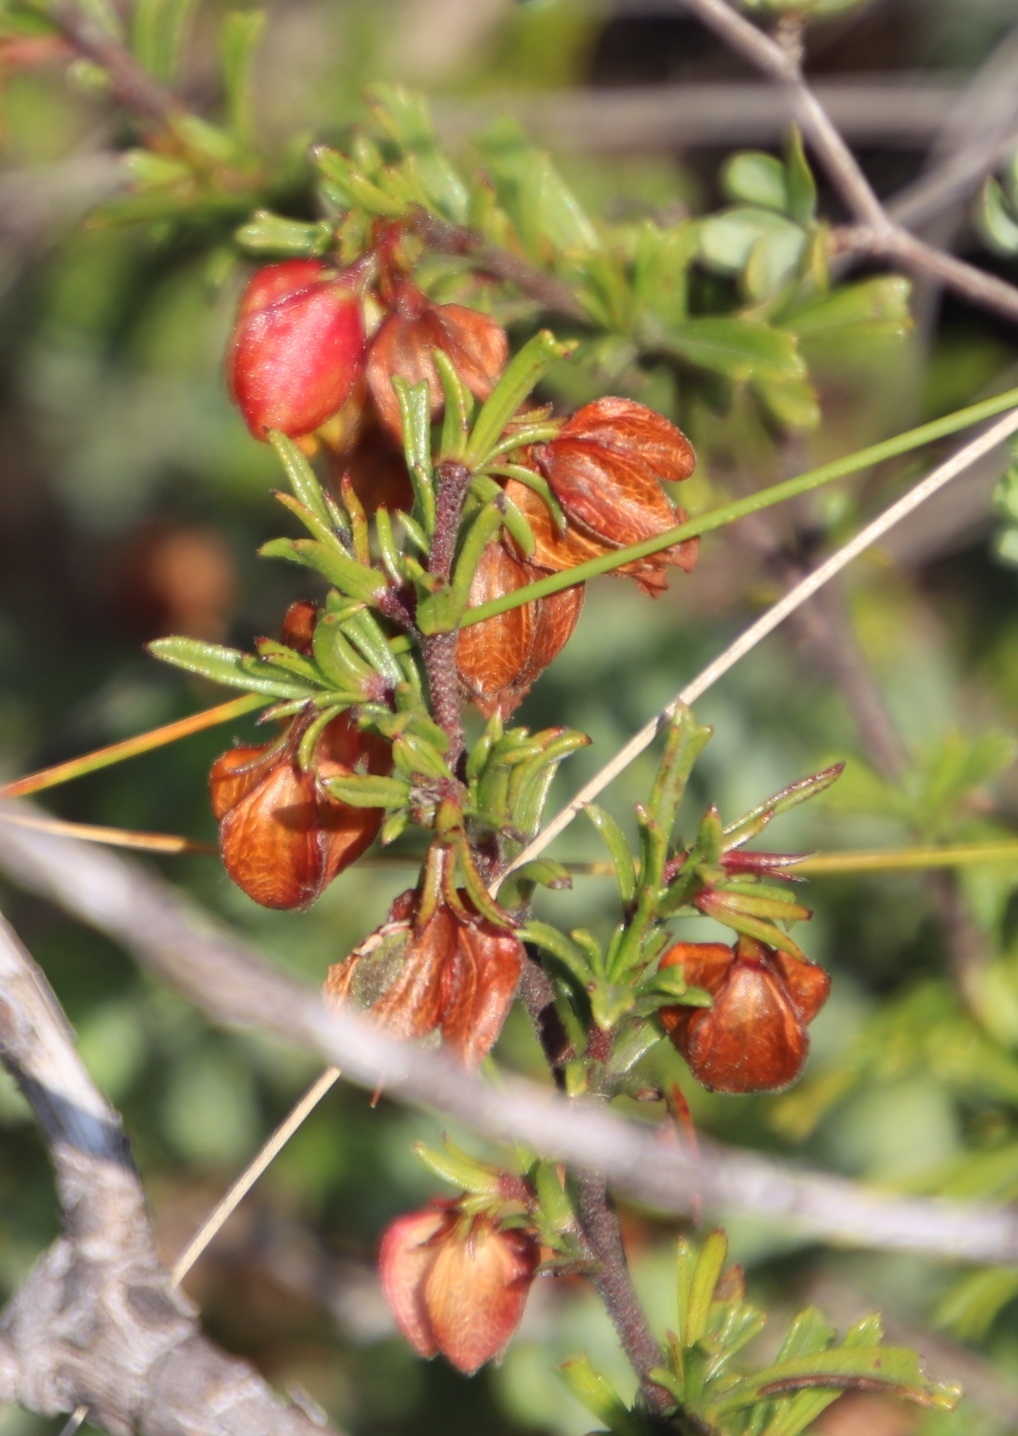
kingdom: Plantae
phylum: Tracheophyta
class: Magnoliopsida
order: Malvales
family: Malvaceae
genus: Hermannia
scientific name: Hermannia angularis
